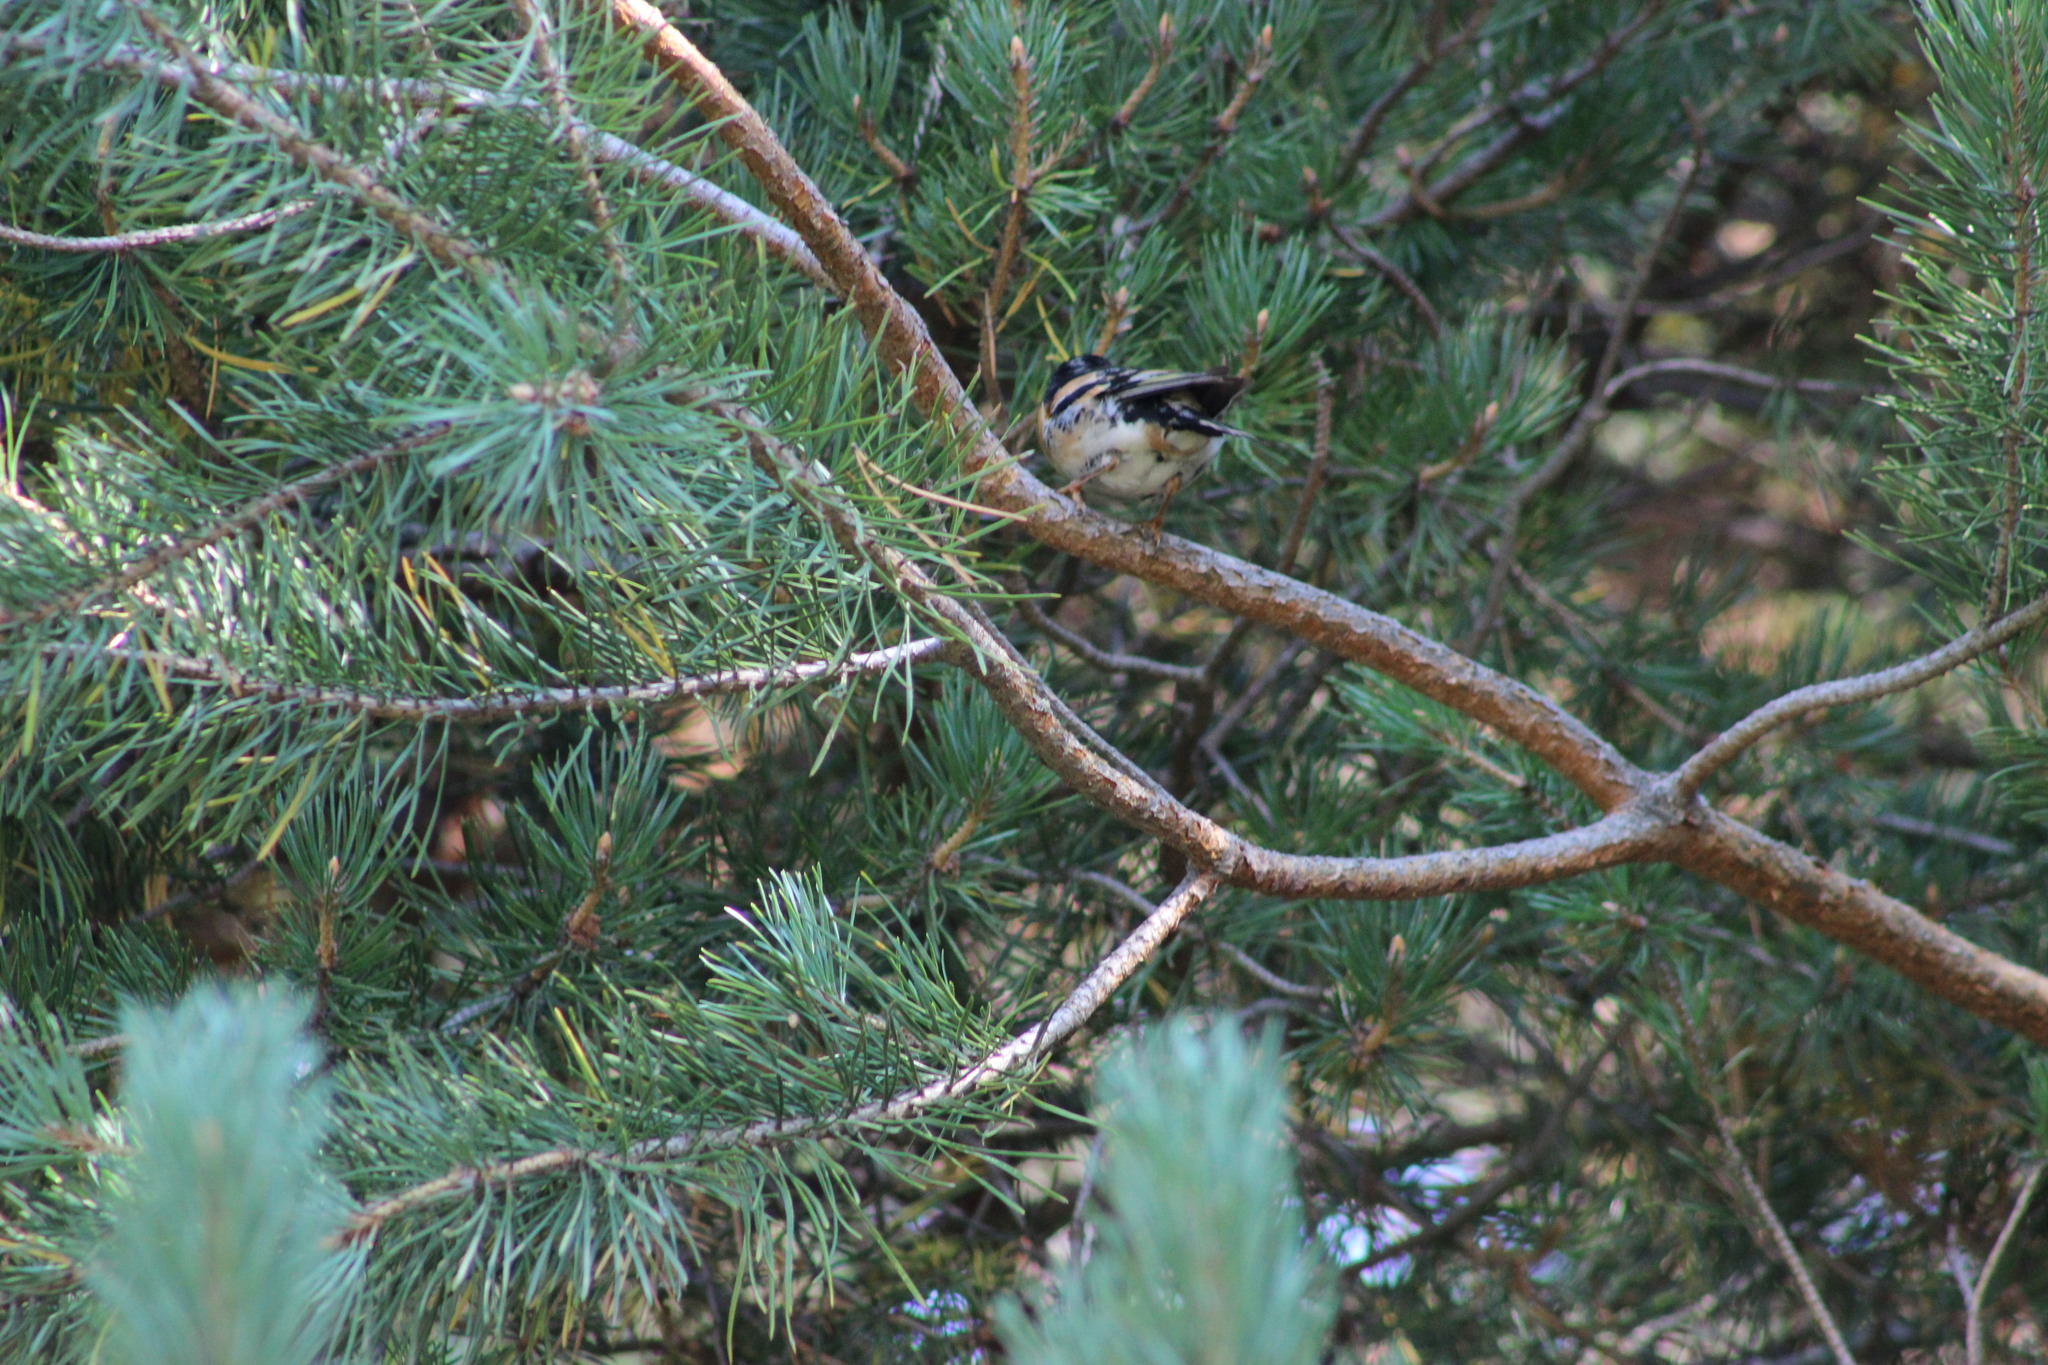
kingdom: Animalia
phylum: Chordata
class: Aves
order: Passeriformes
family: Fringillidae
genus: Fringilla
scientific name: Fringilla montifringilla
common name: Brambling
